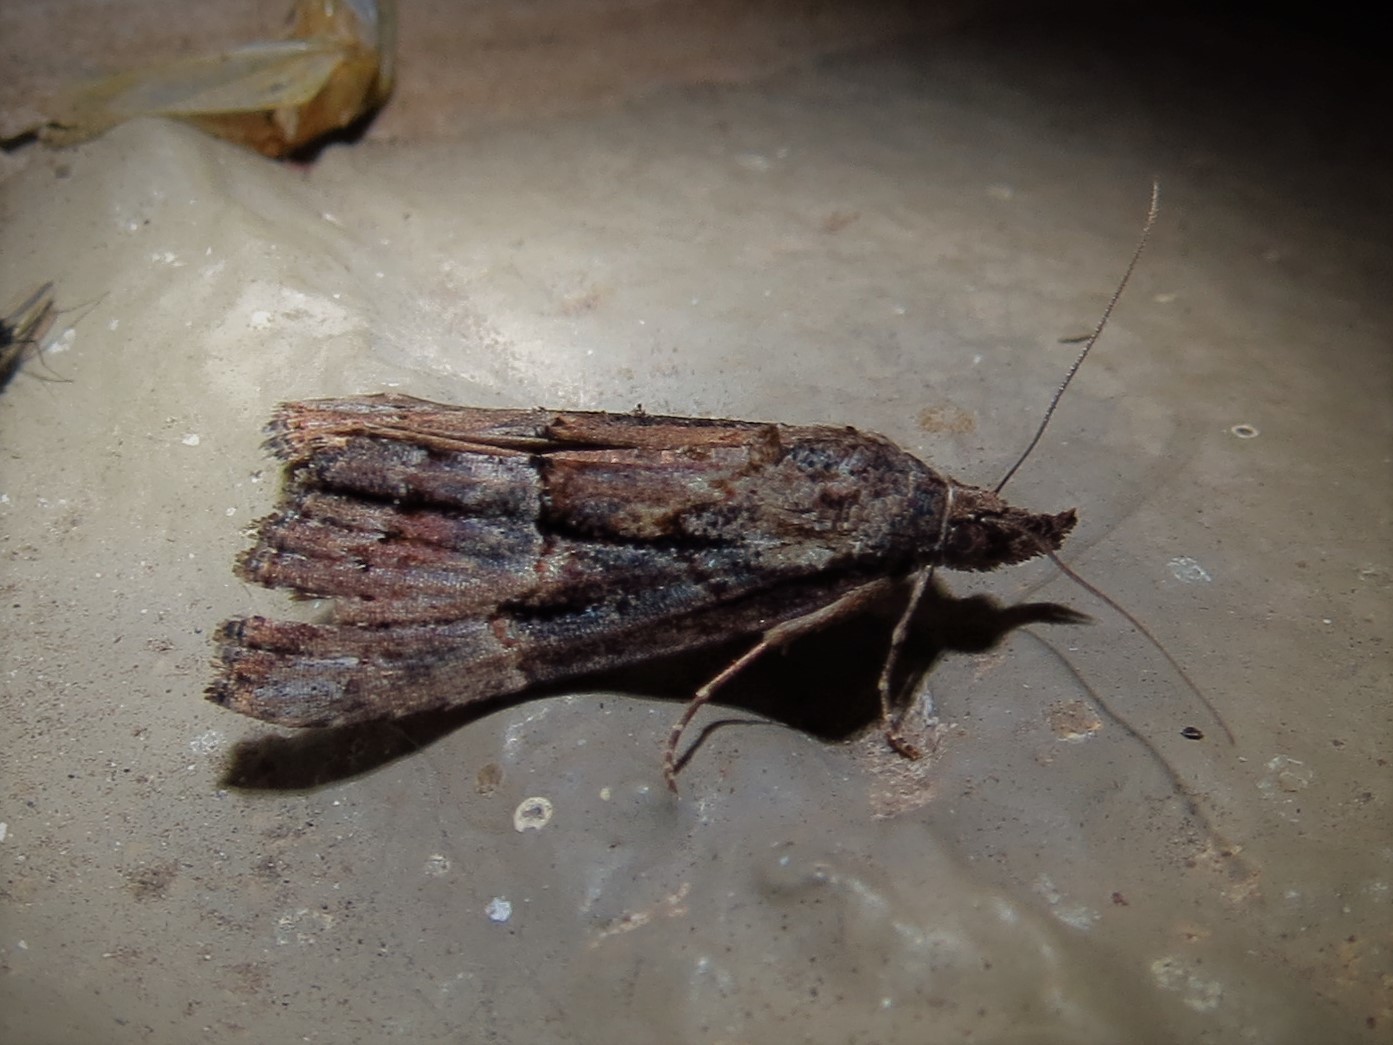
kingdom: Animalia
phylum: Arthropoda
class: Insecta
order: Lepidoptera
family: Erebidae
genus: Hypena
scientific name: Hypena scabra
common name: Green cloverworm
